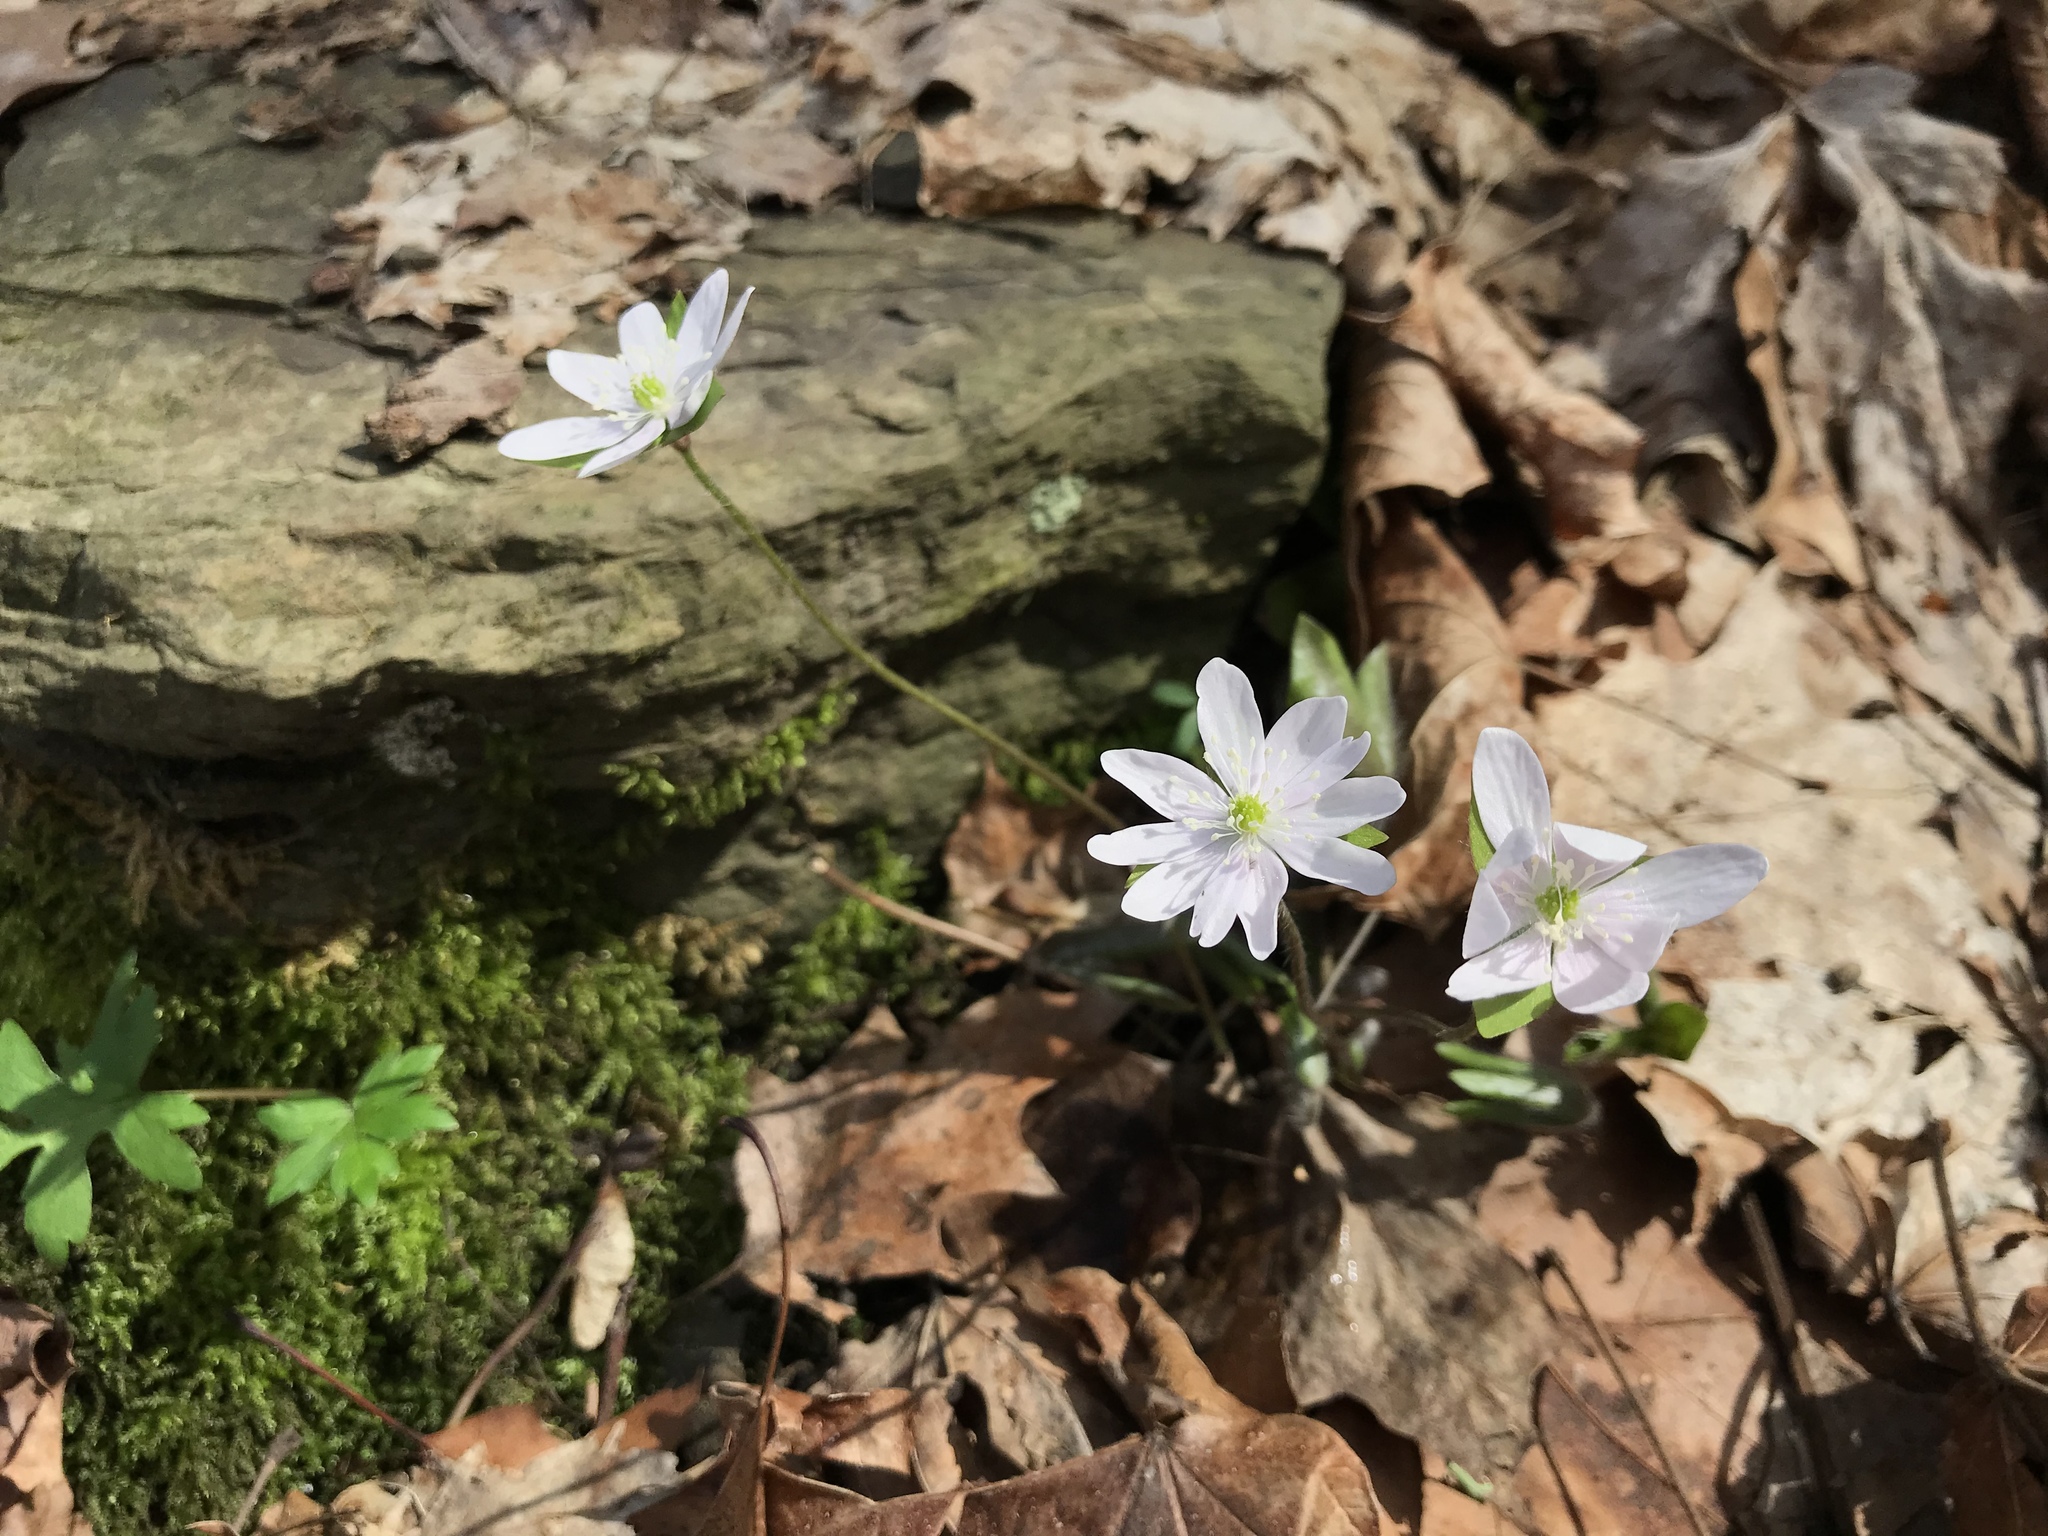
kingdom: Plantae
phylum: Tracheophyta
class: Magnoliopsida
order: Ranunculales
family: Ranunculaceae
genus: Hepatica
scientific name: Hepatica acutiloba
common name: Sharp-lobed hepatica
